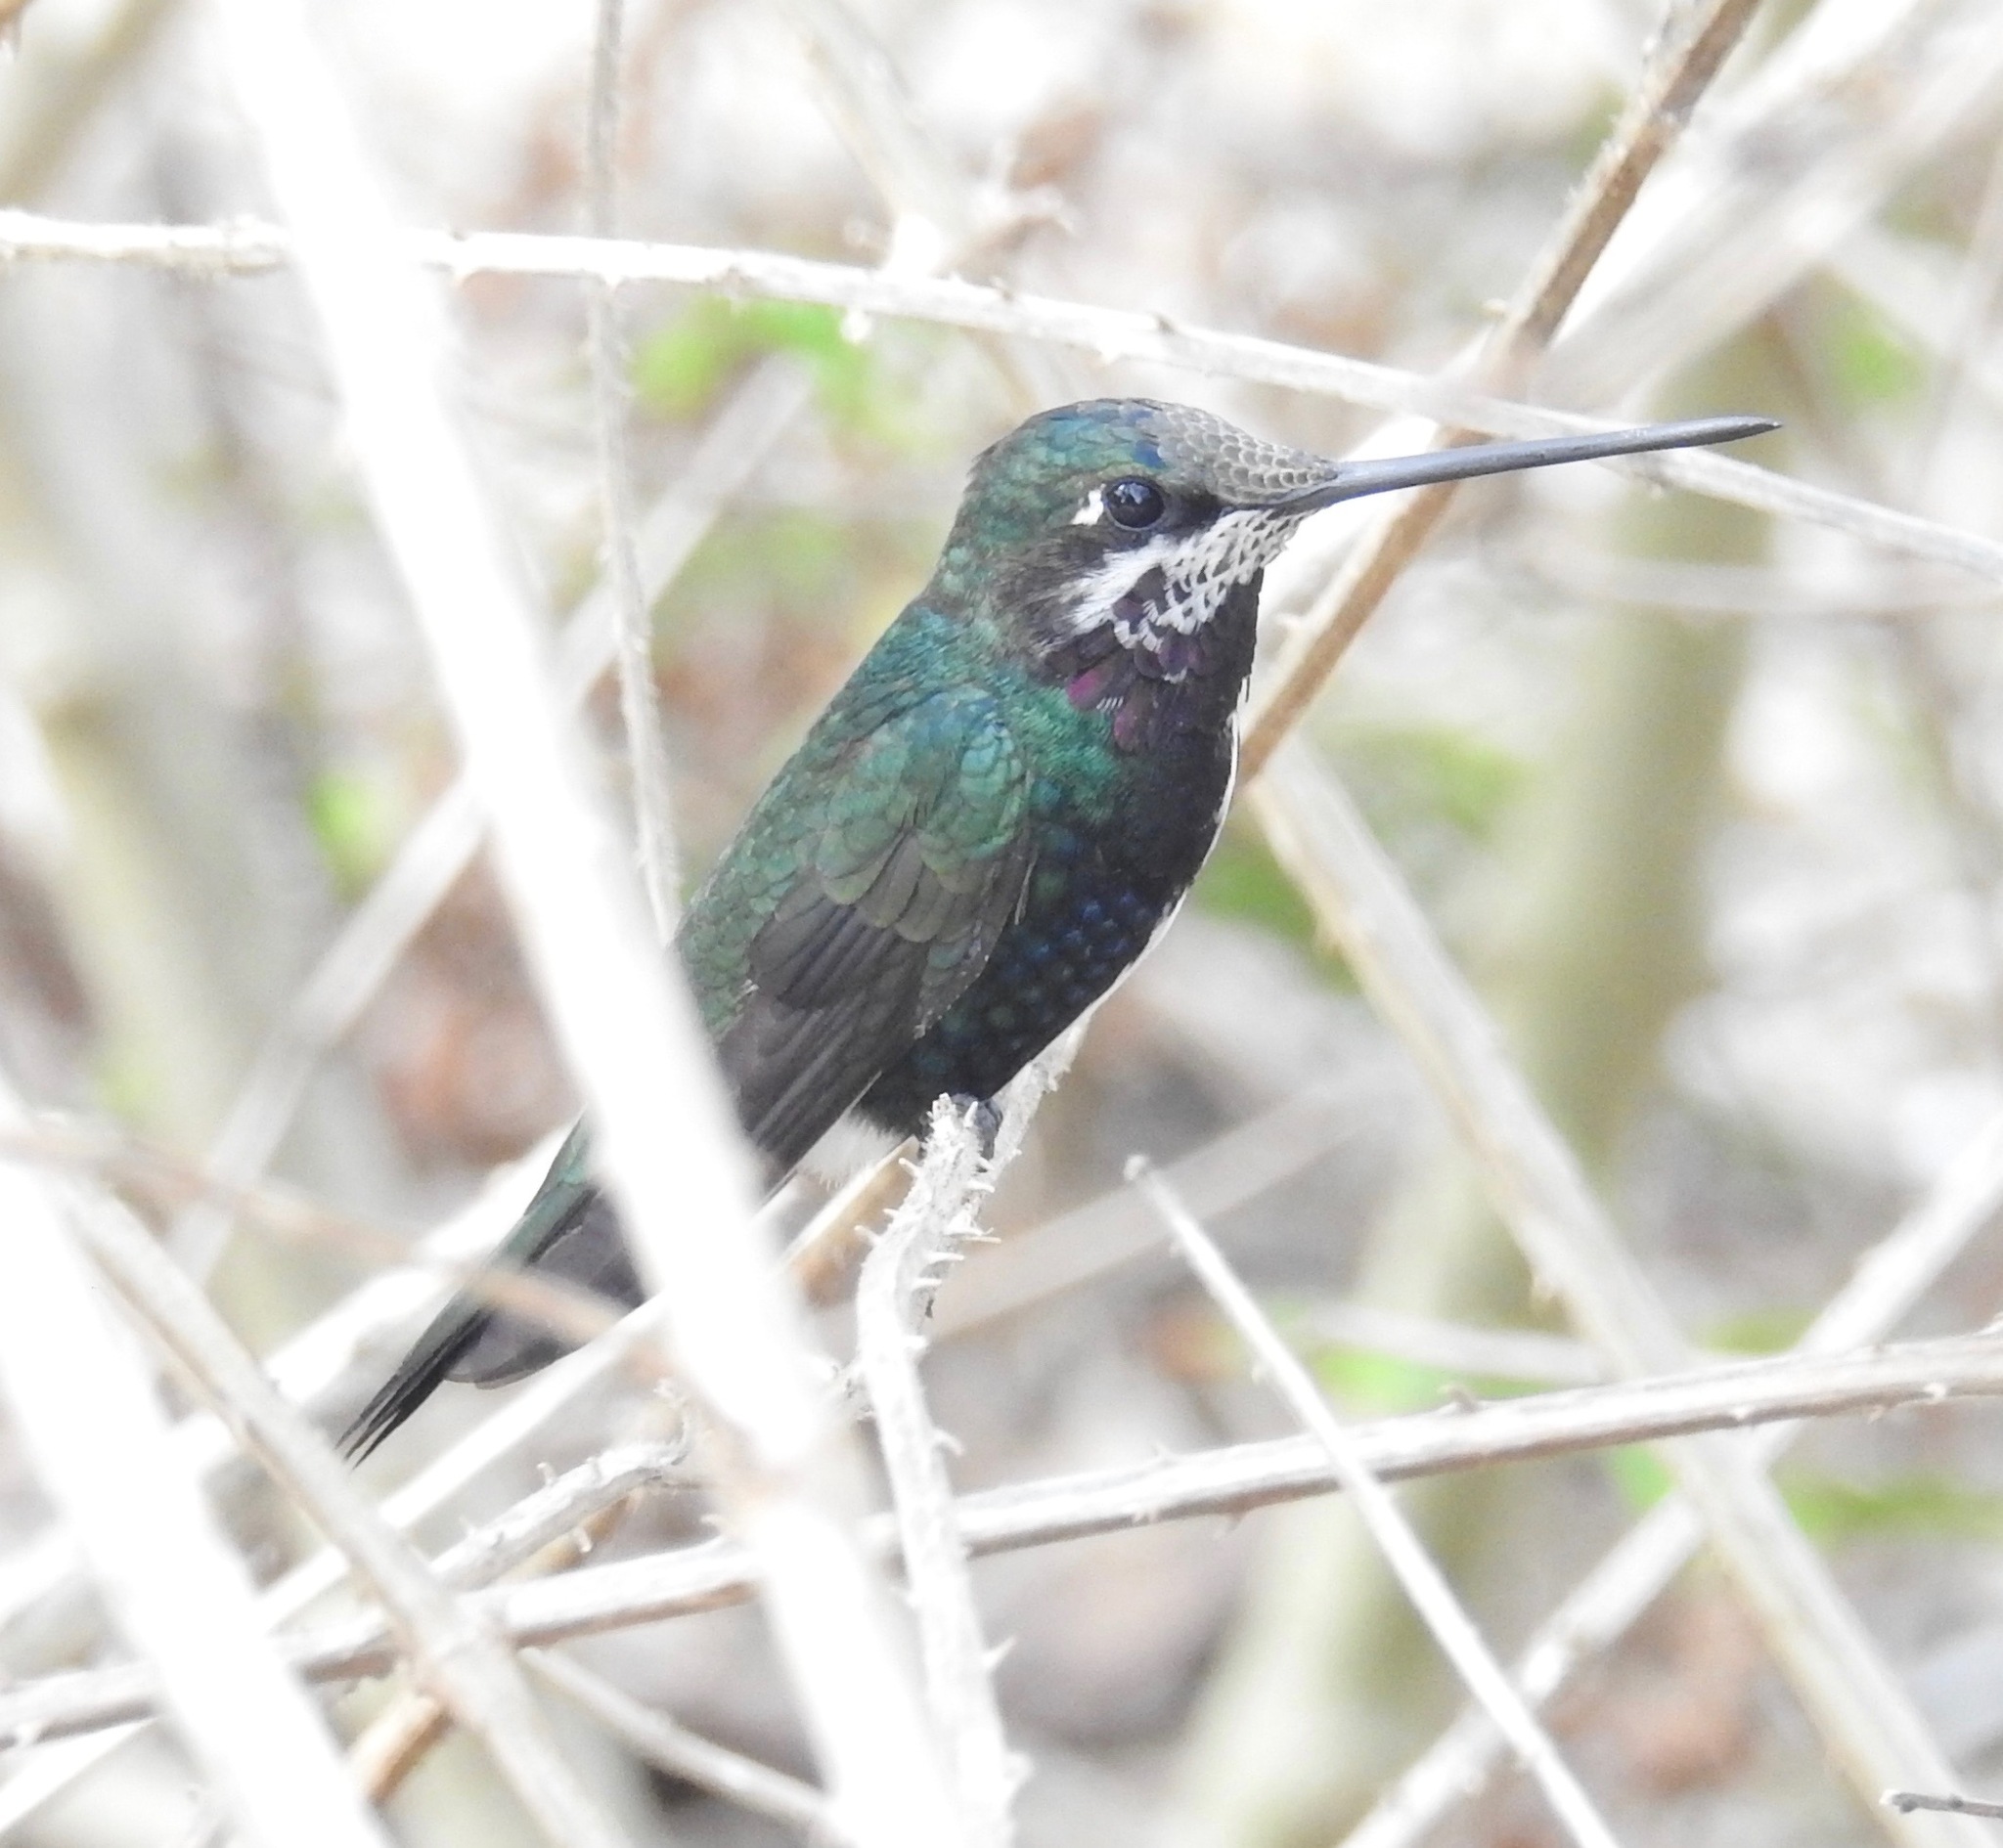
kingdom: Animalia
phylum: Chordata
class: Aves
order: Apodiformes
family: Trochilidae
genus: Heliomaster
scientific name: Heliomaster squamosus
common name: Stripe-breasted starthroat
